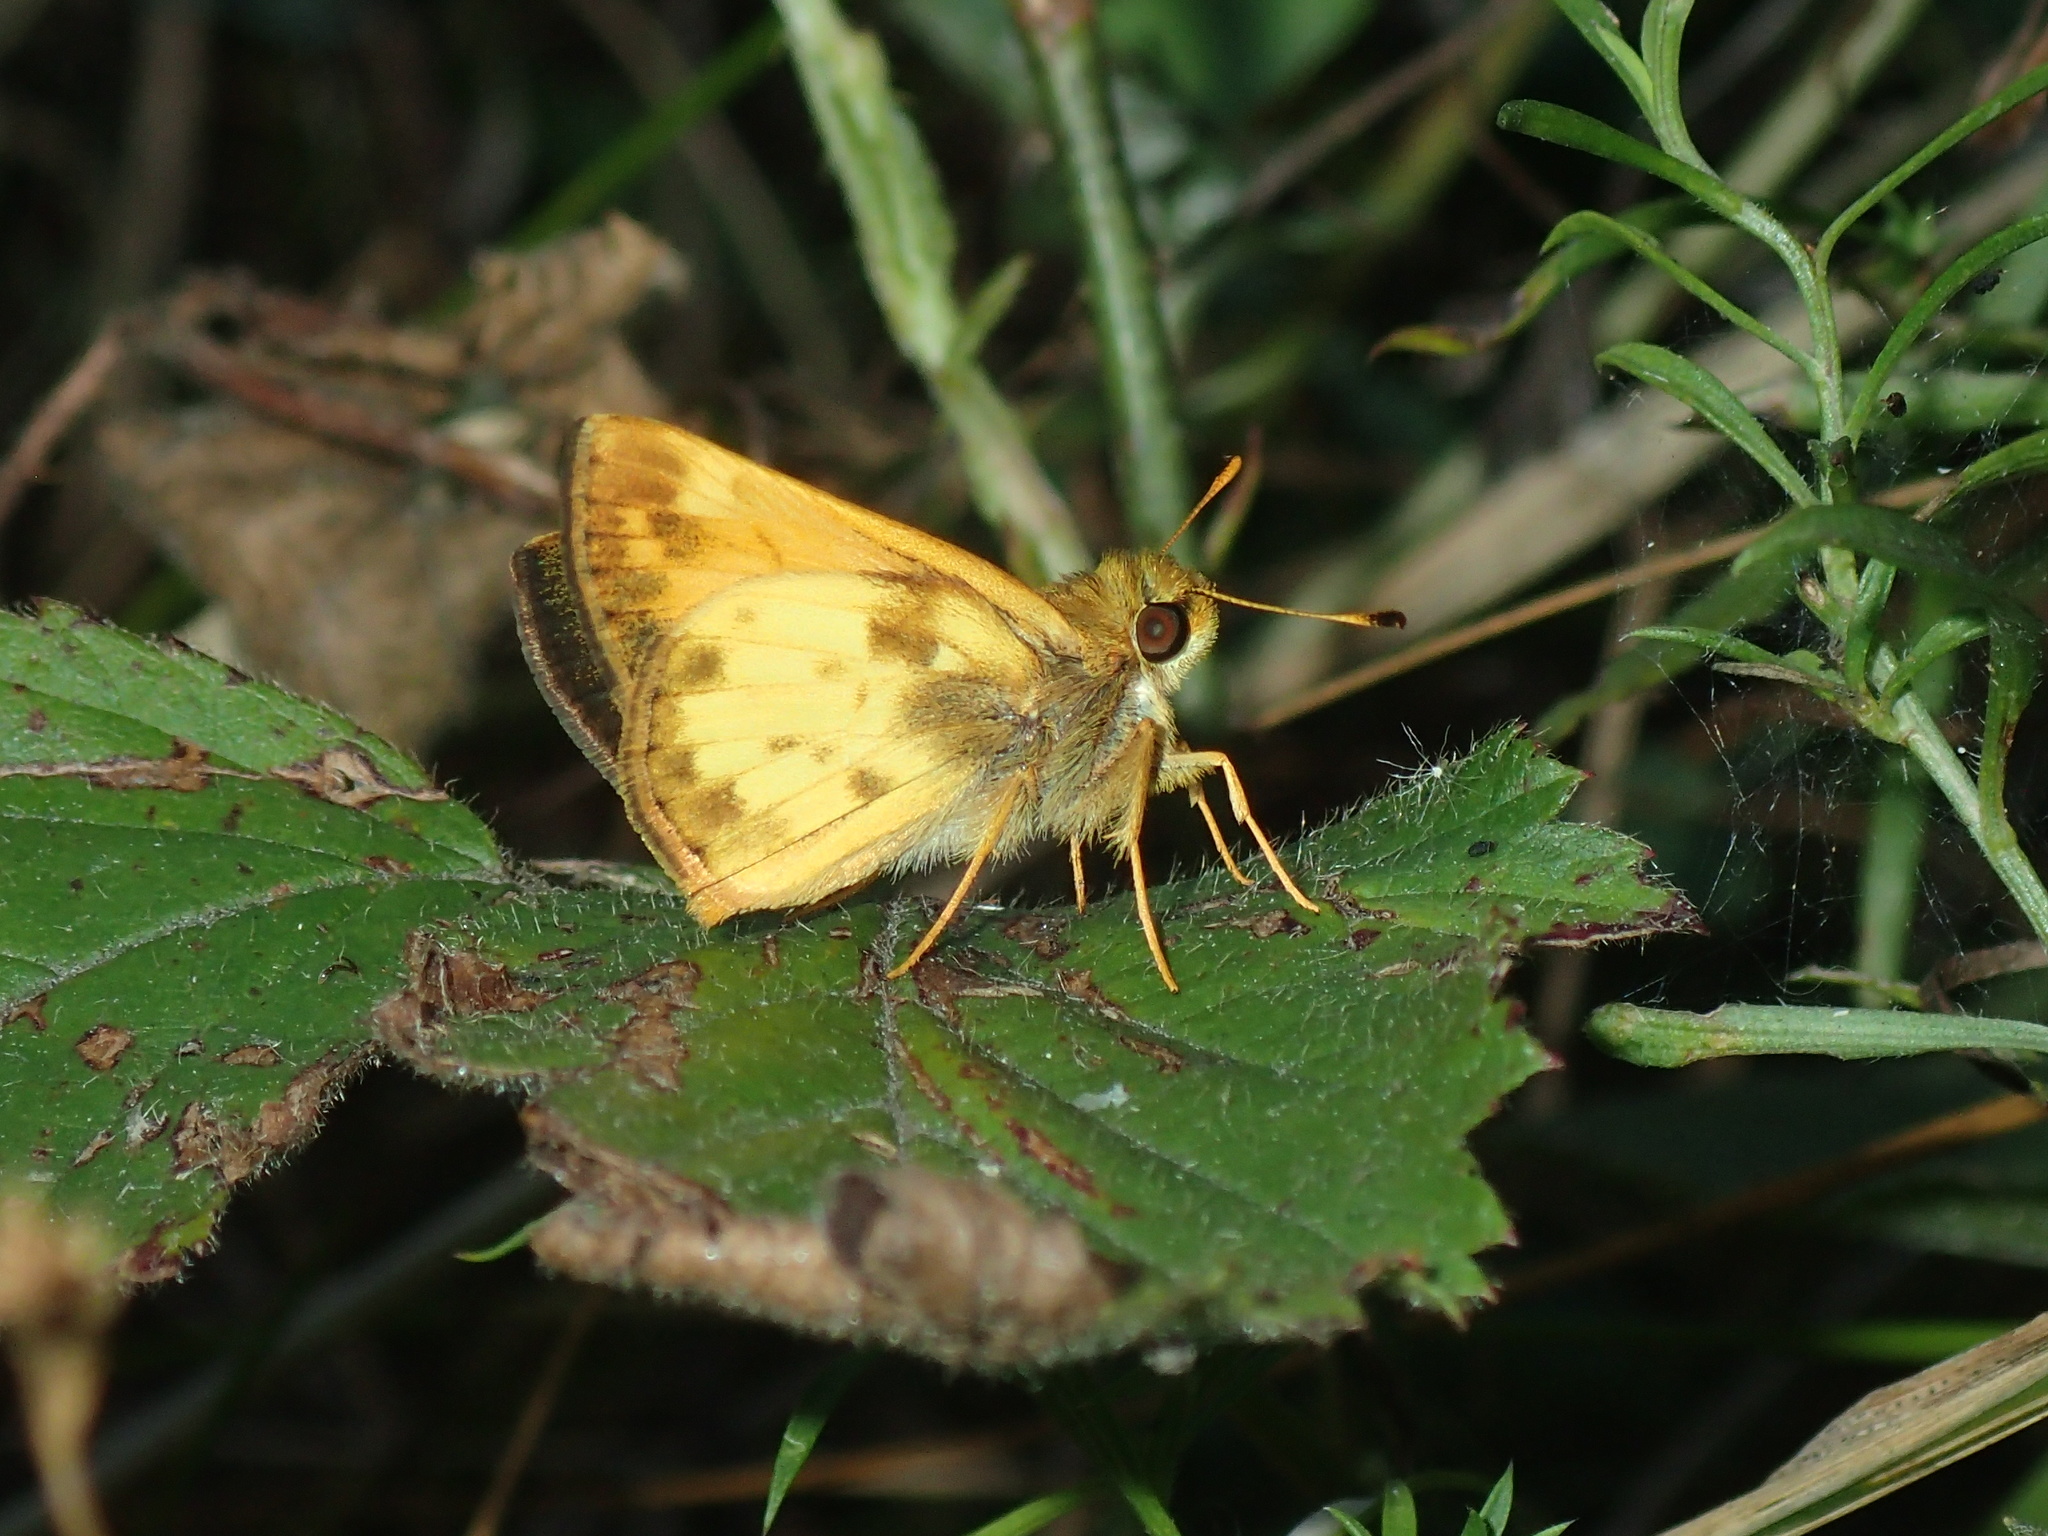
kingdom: Animalia
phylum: Arthropoda
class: Insecta
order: Lepidoptera
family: Hesperiidae
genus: Lon
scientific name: Lon zabulon
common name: Zabulon skipper
